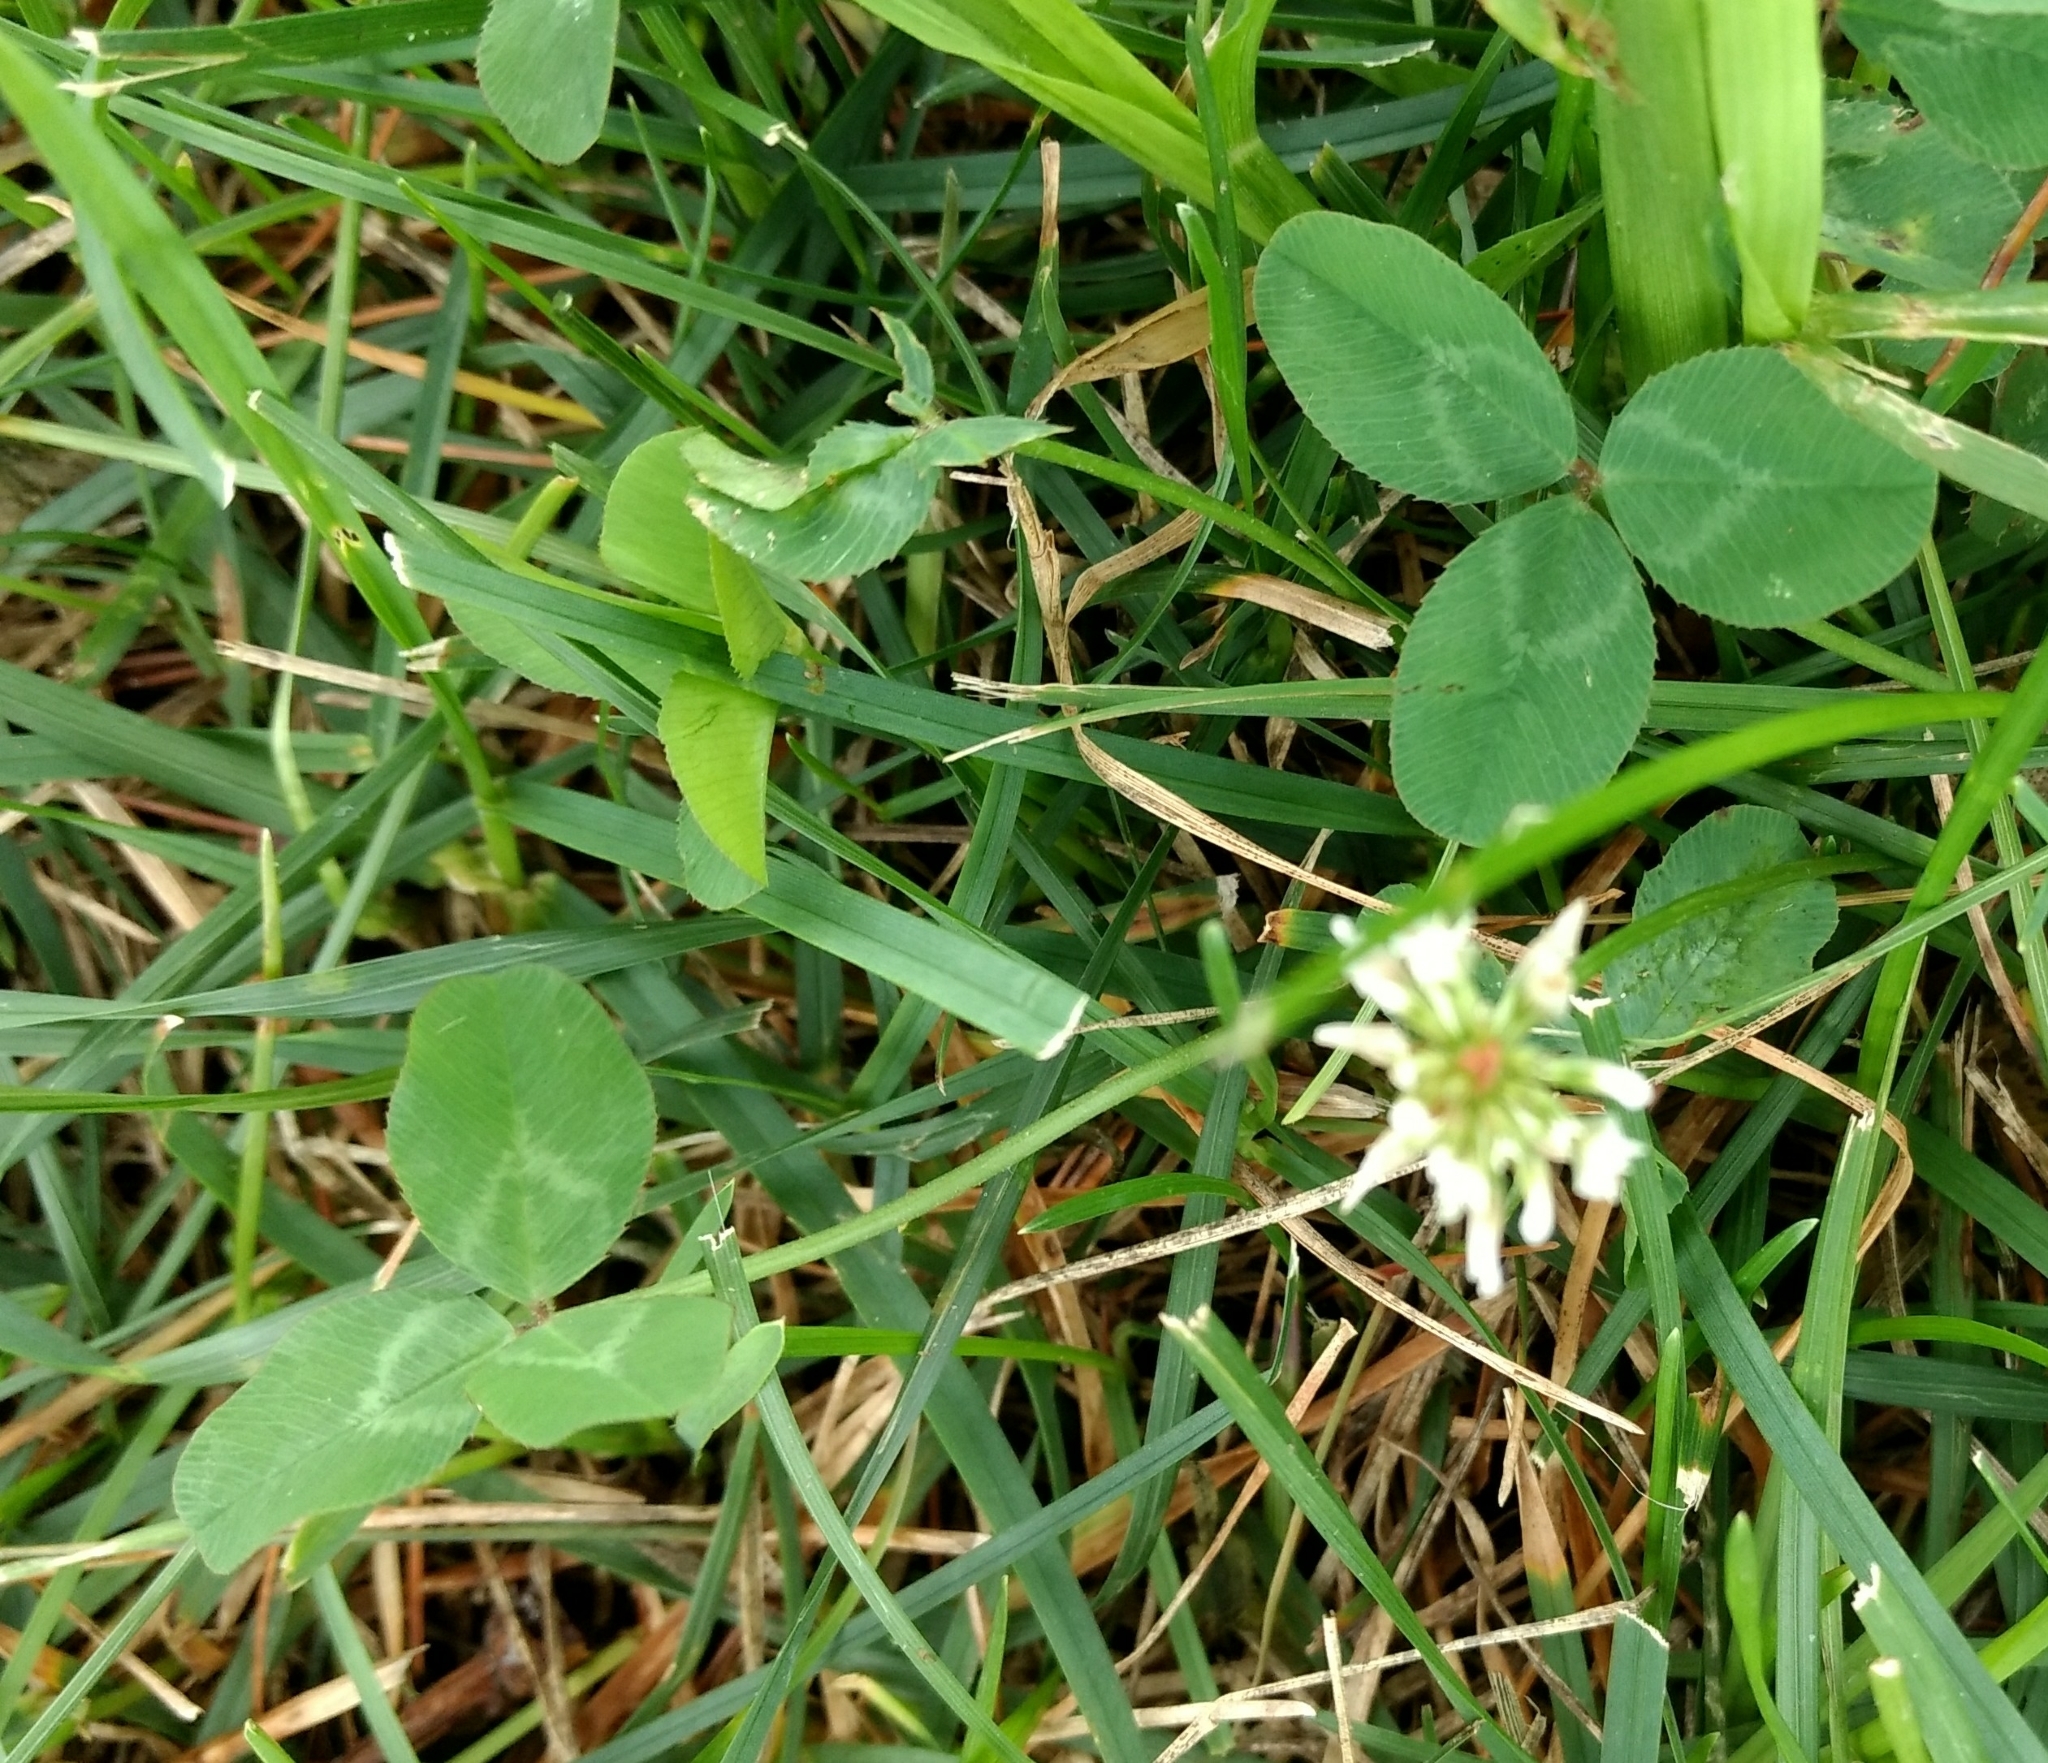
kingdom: Plantae
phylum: Tracheophyta
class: Magnoliopsida
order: Fabales
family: Fabaceae
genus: Trifolium
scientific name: Trifolium repens
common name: White clover
